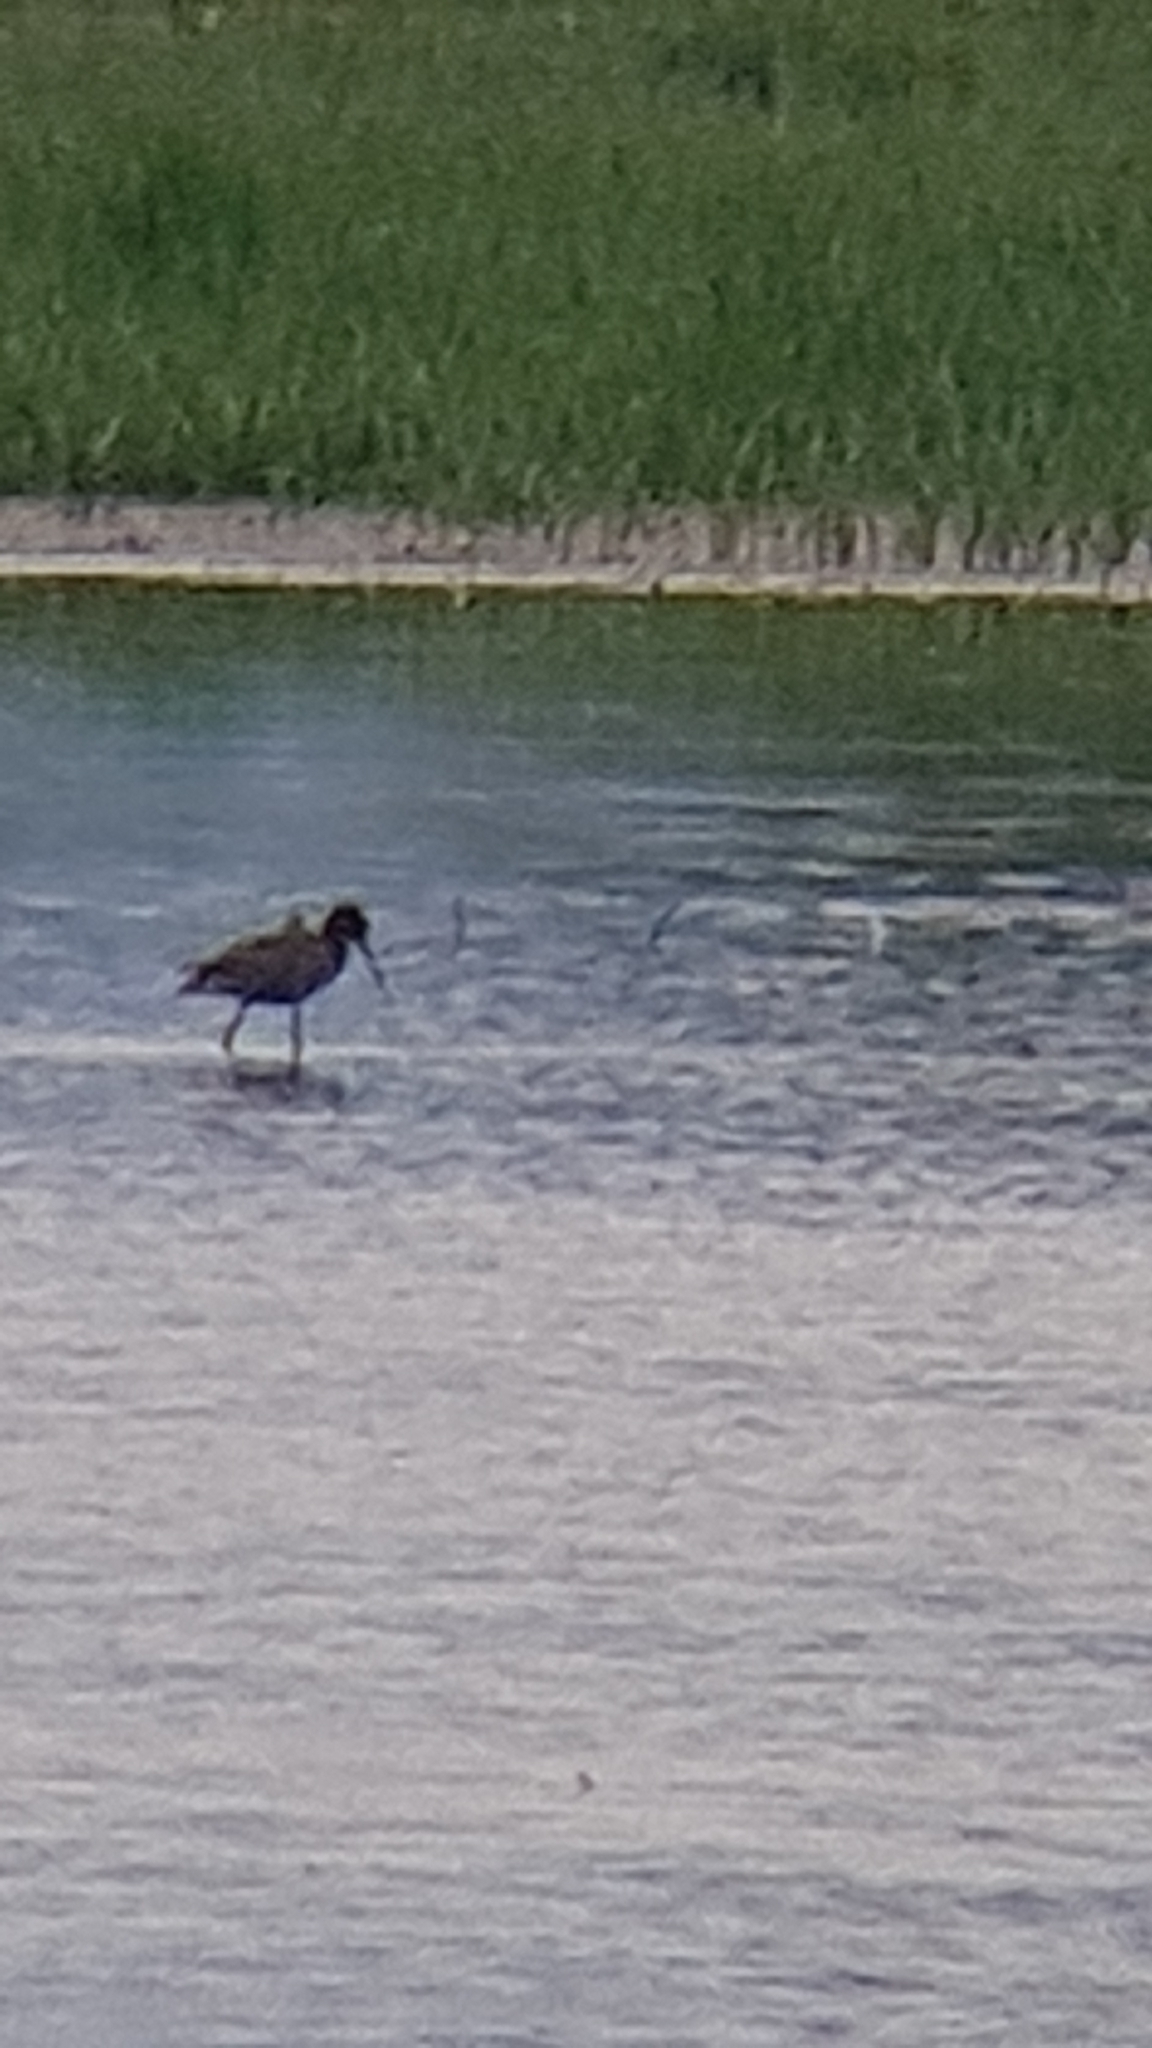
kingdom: Animalia
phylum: Chordata
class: Aves
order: Charadriiformes
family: Scolopacidae
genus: Tringa
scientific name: Tringa erythropus
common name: Spotted redshank
